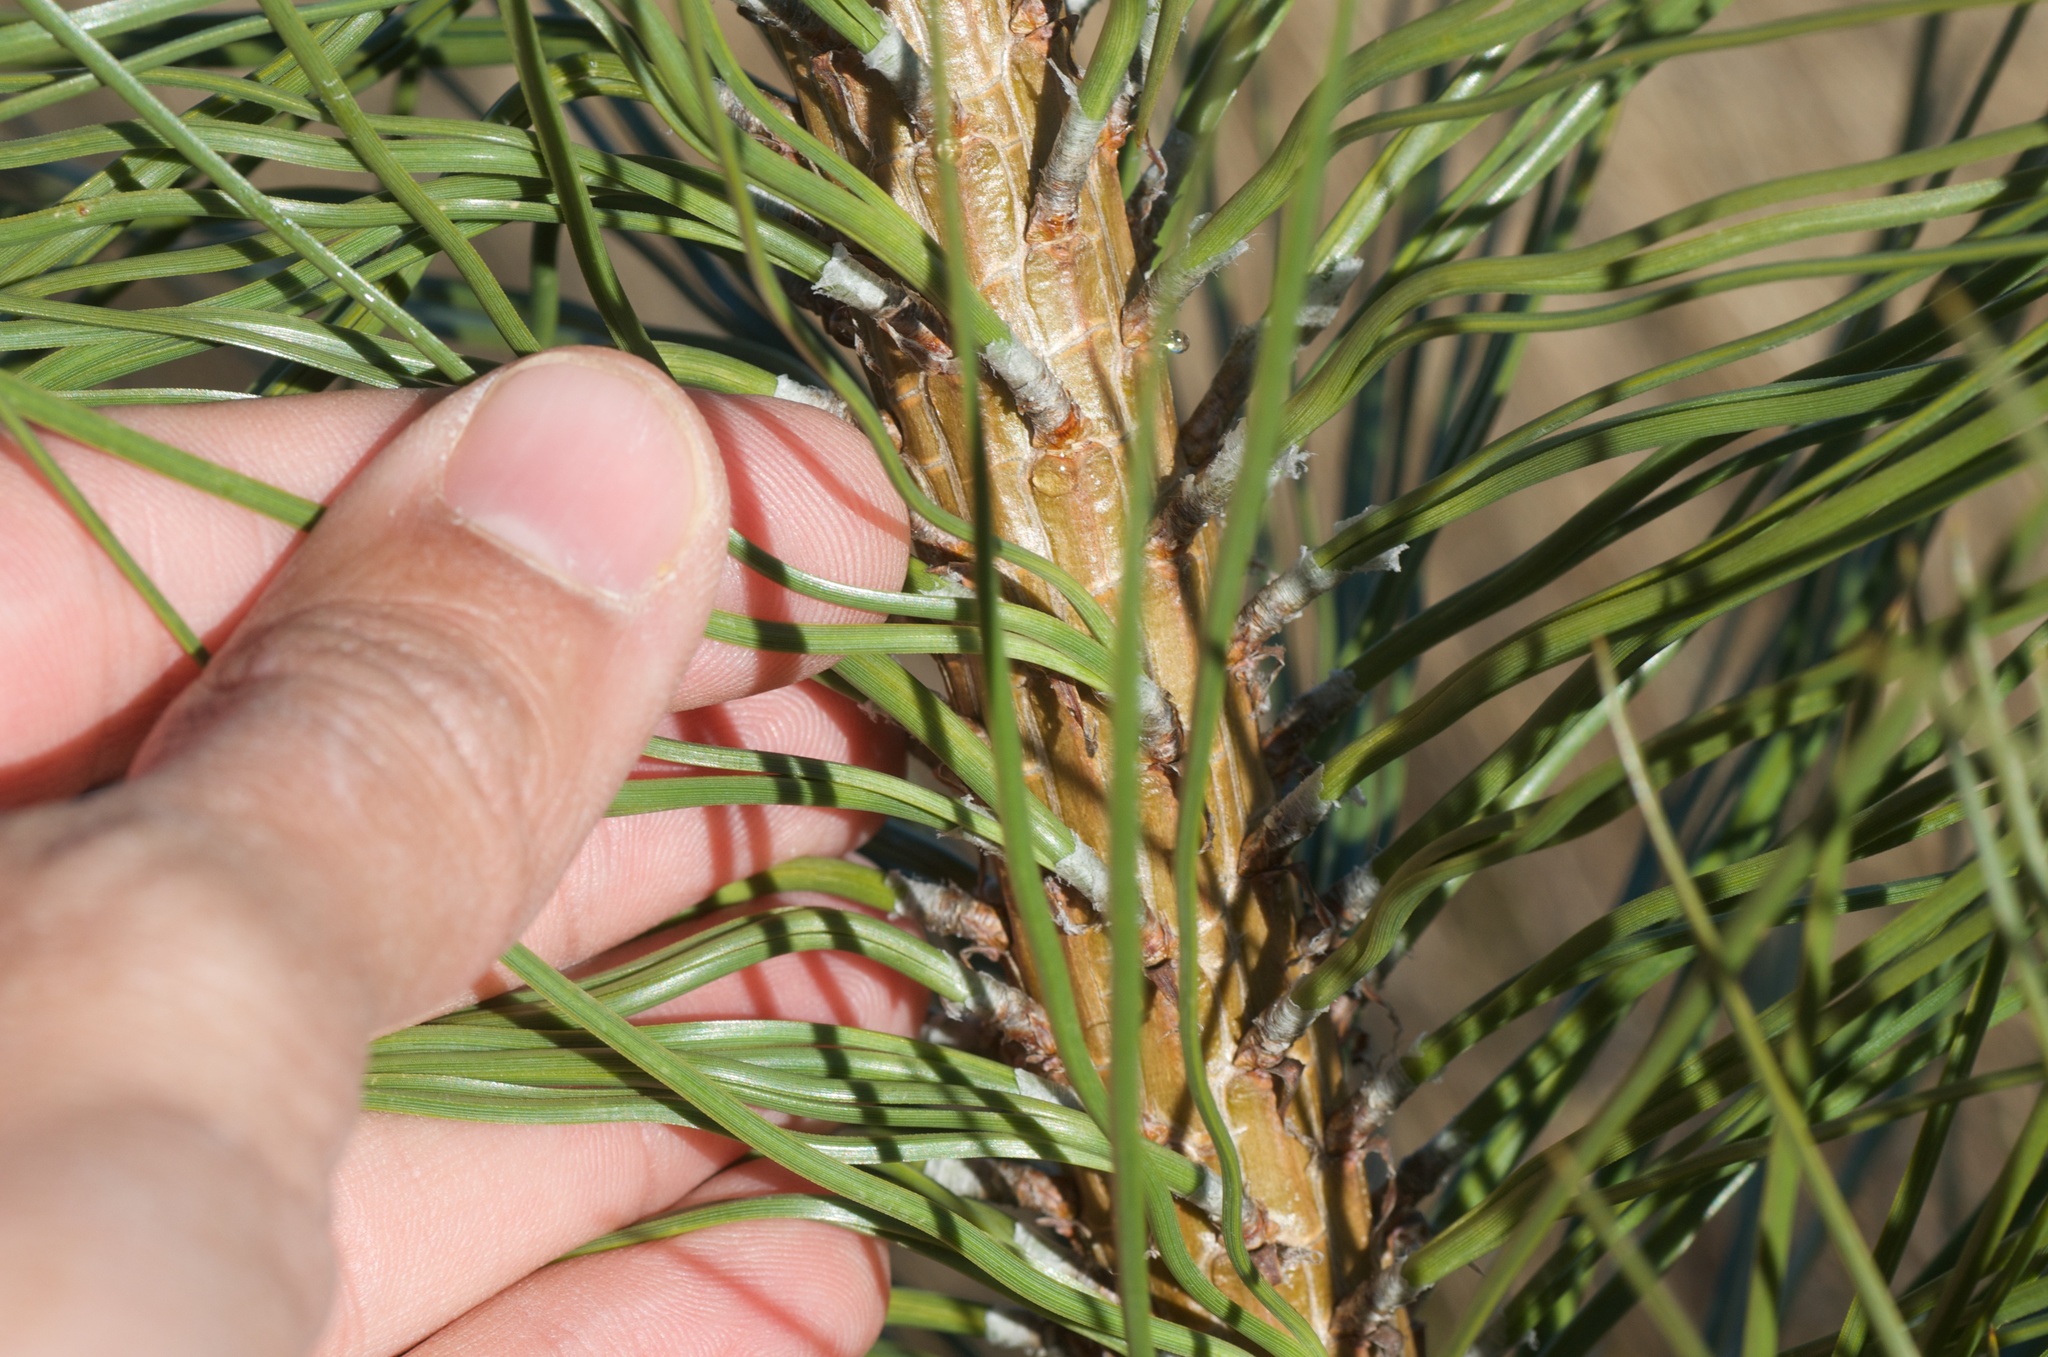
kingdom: Plantae
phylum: Tracheophyta
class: Pinopsida
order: Pinales
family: Pinaceae
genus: Pinus
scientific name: Pinus ponderosa
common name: Western yellow-pine
